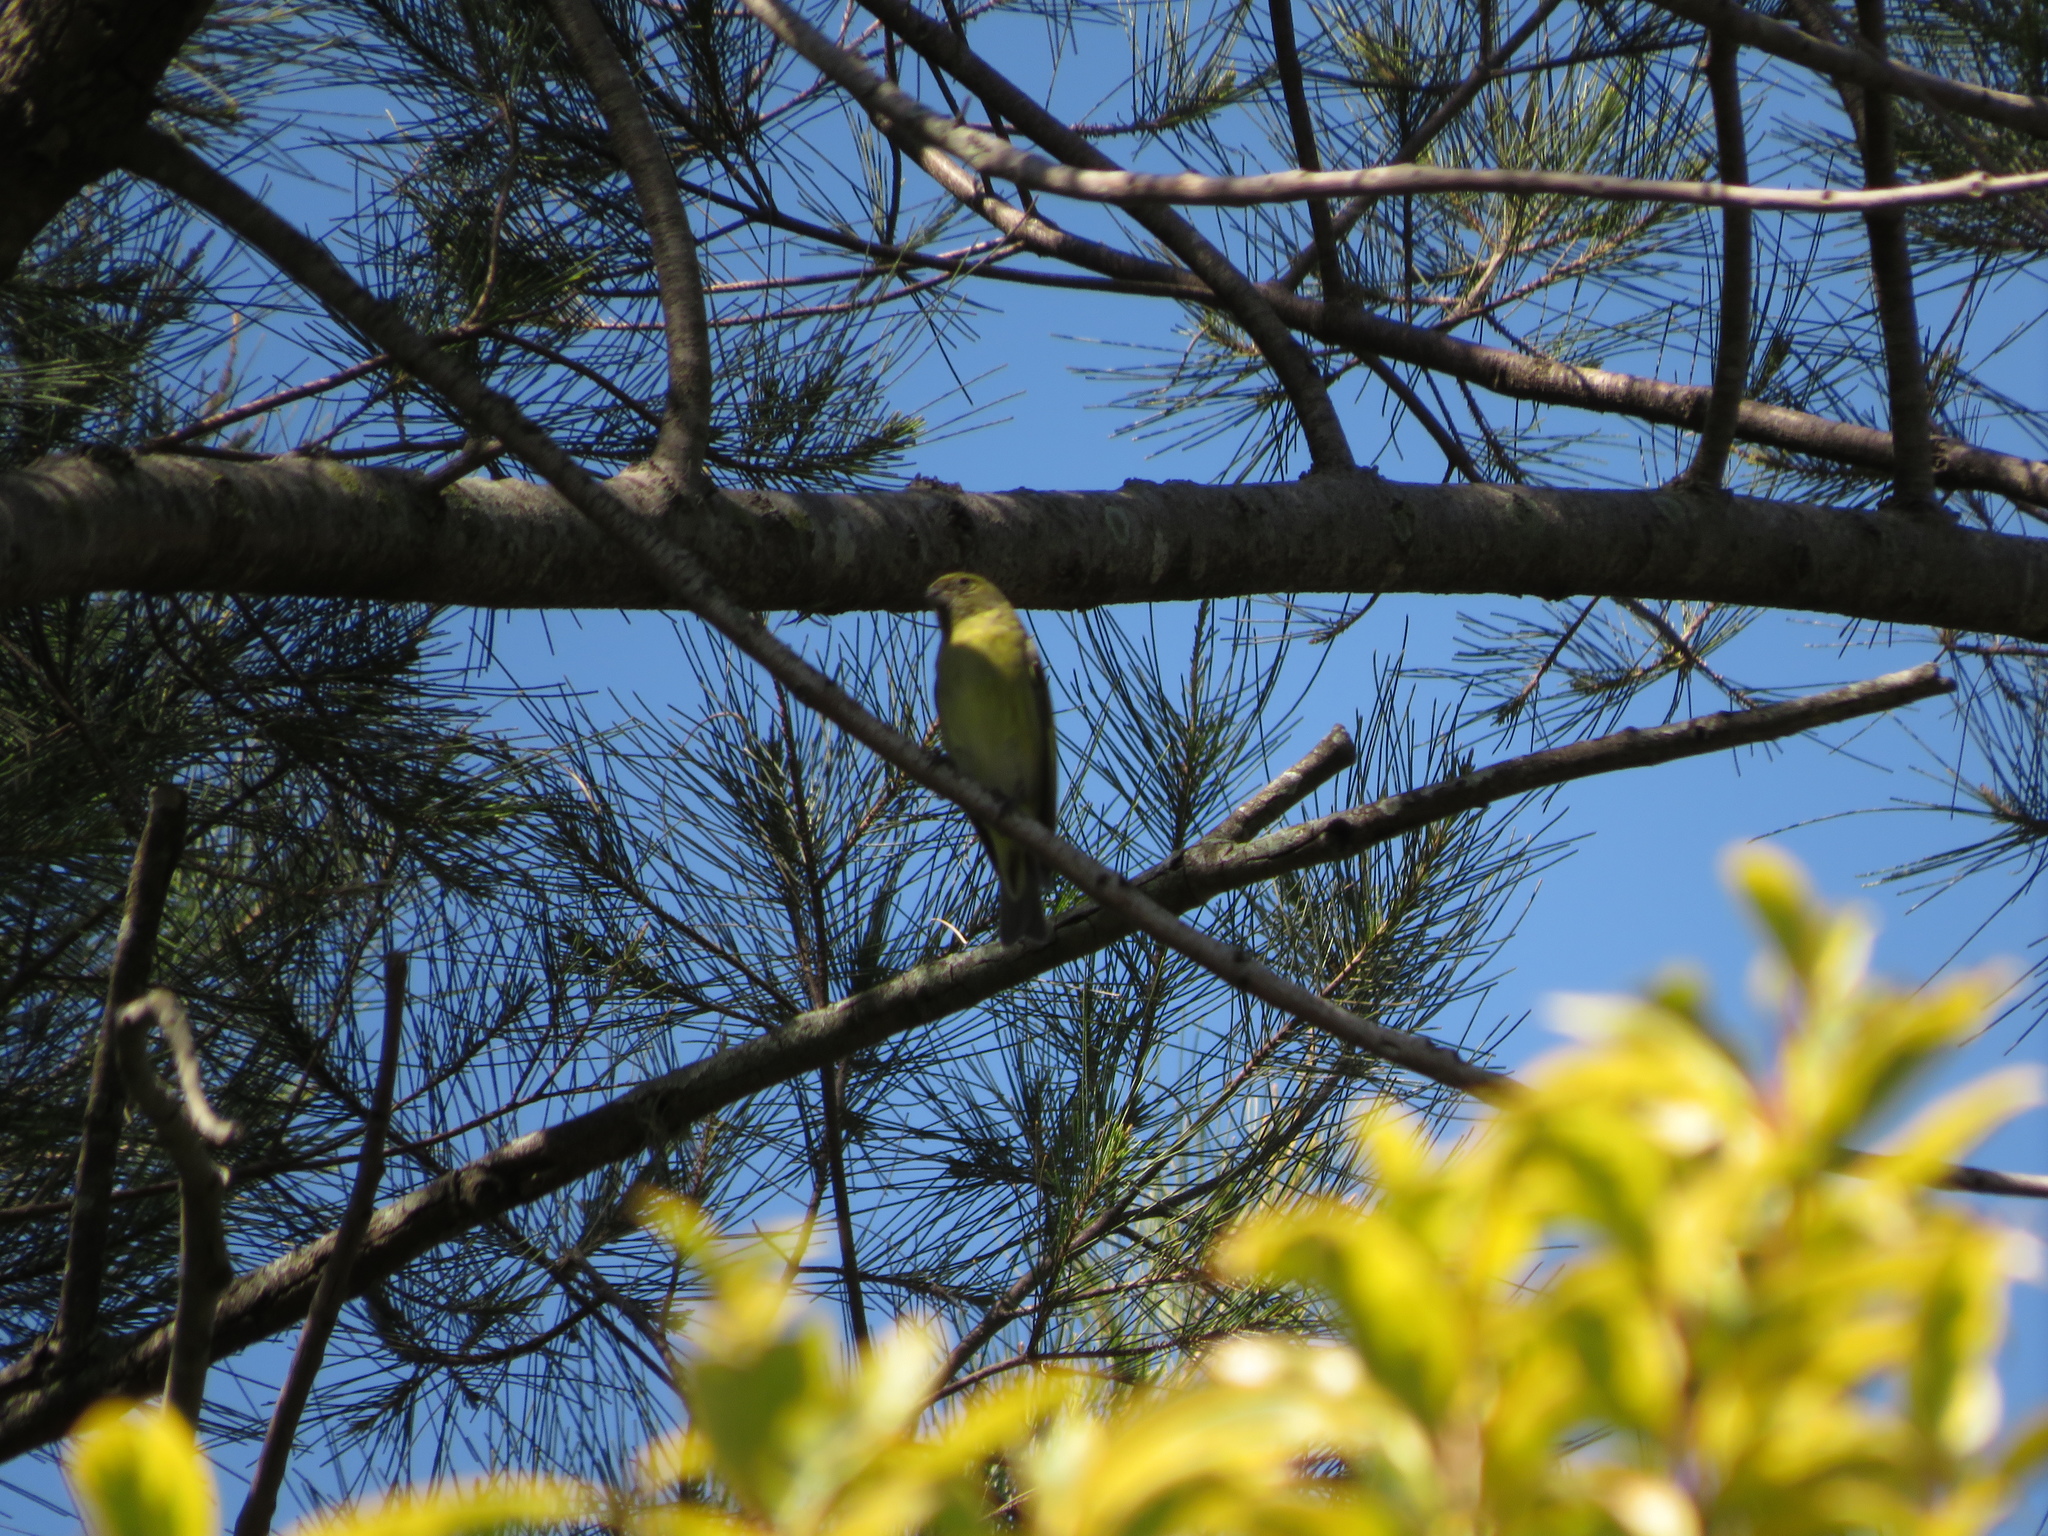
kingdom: Animalia
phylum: Chordata
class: Aves
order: Passeriformes
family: Fringillidae
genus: Spinus
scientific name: Spinus magellanicus
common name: Hooded siskin
